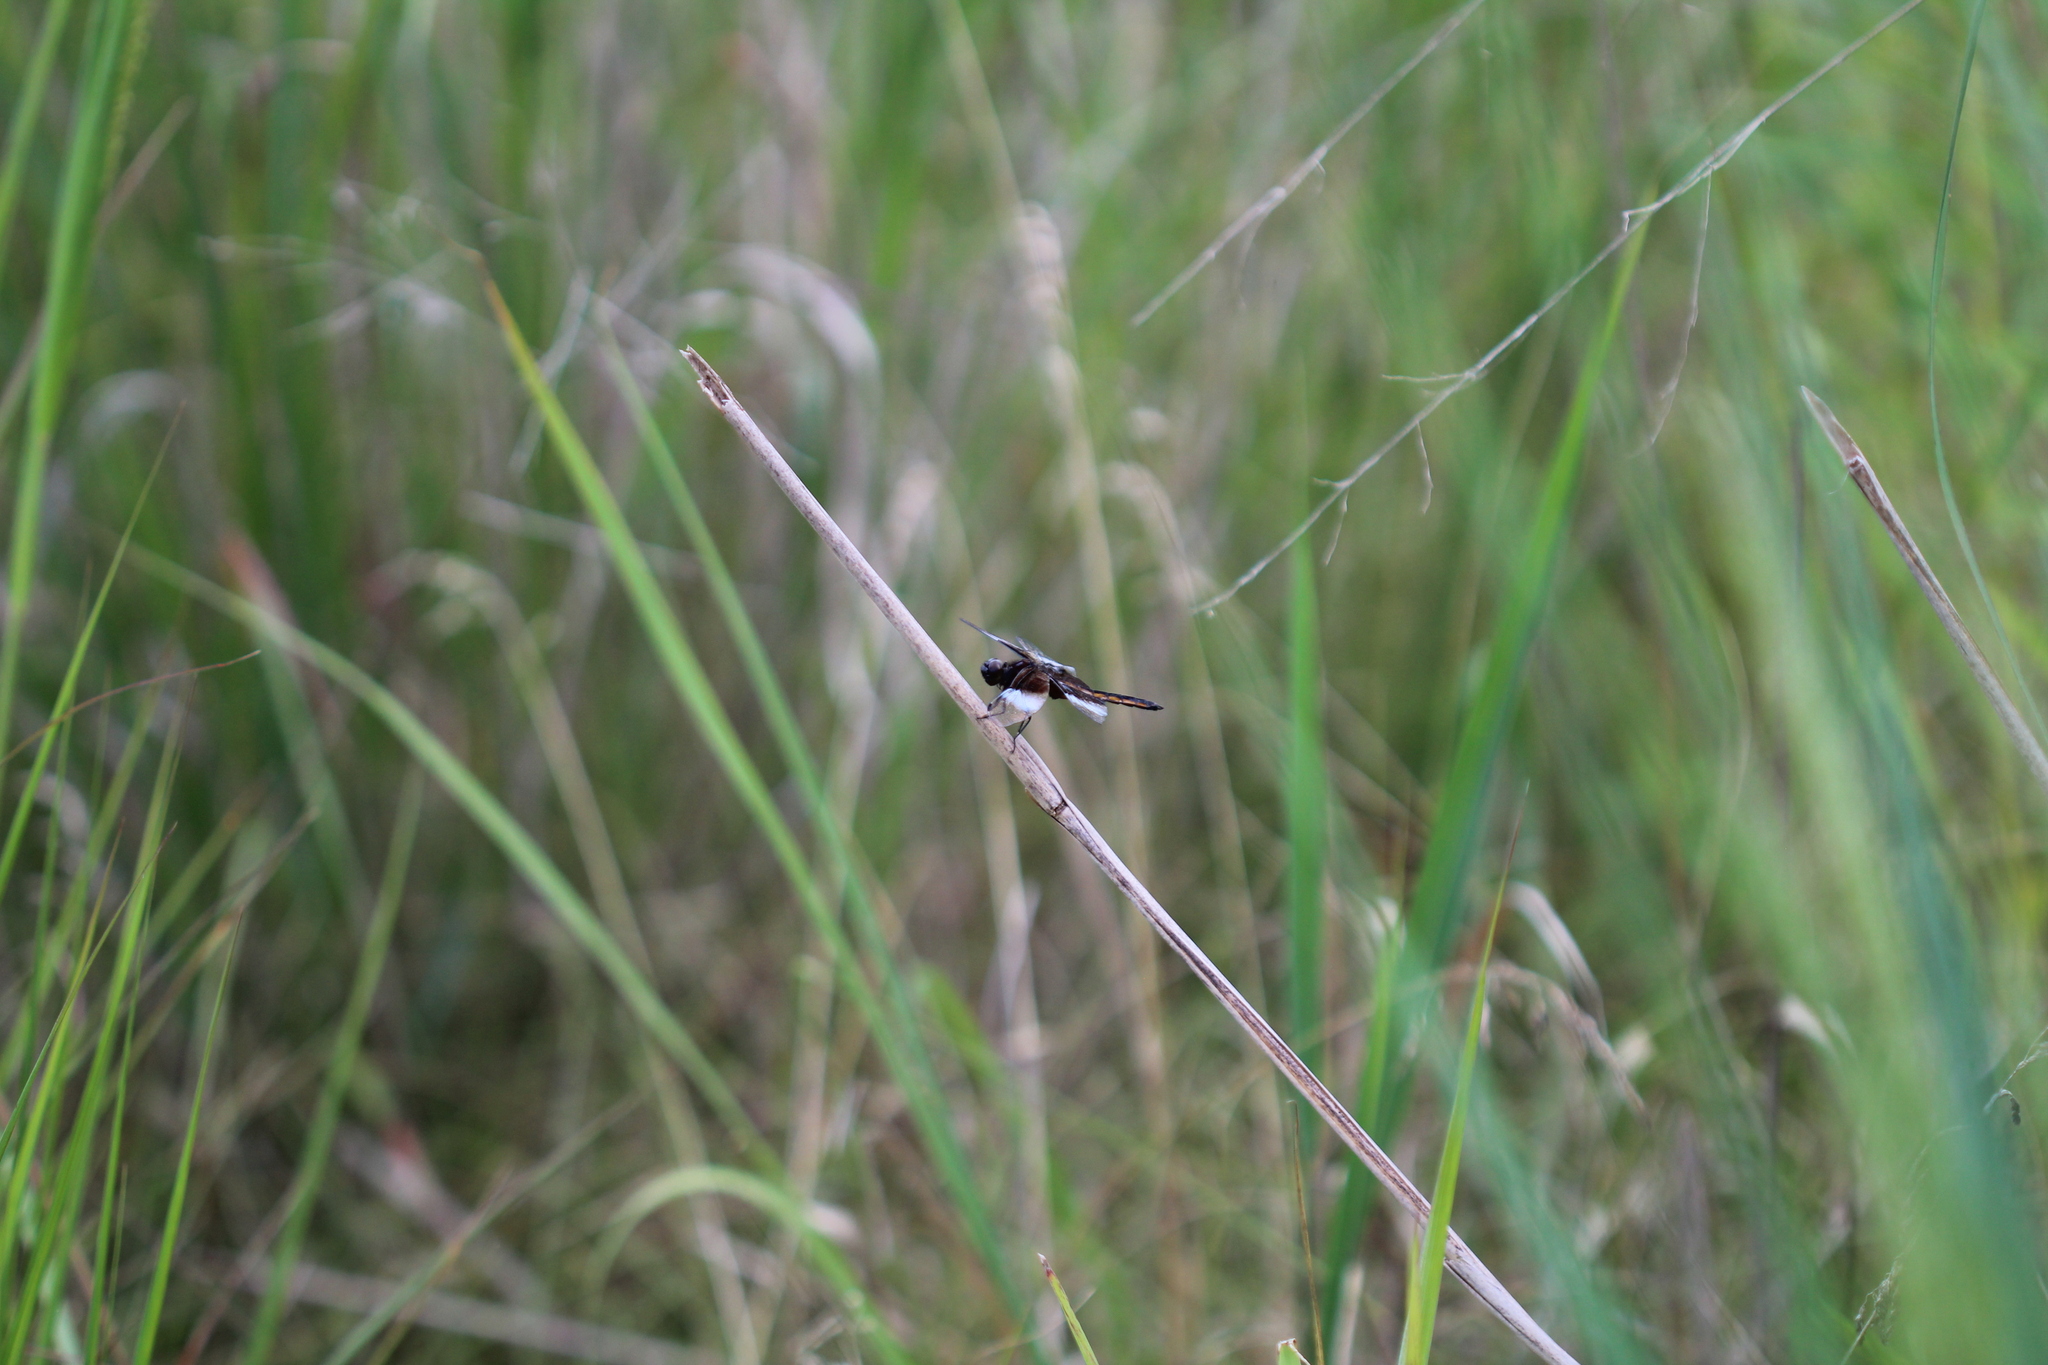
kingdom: Animalia
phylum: Arthropoda
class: Insecta
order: Odonata
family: Libellulidae
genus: Libellula
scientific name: Libellula luctuosa
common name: Widow skimmer
